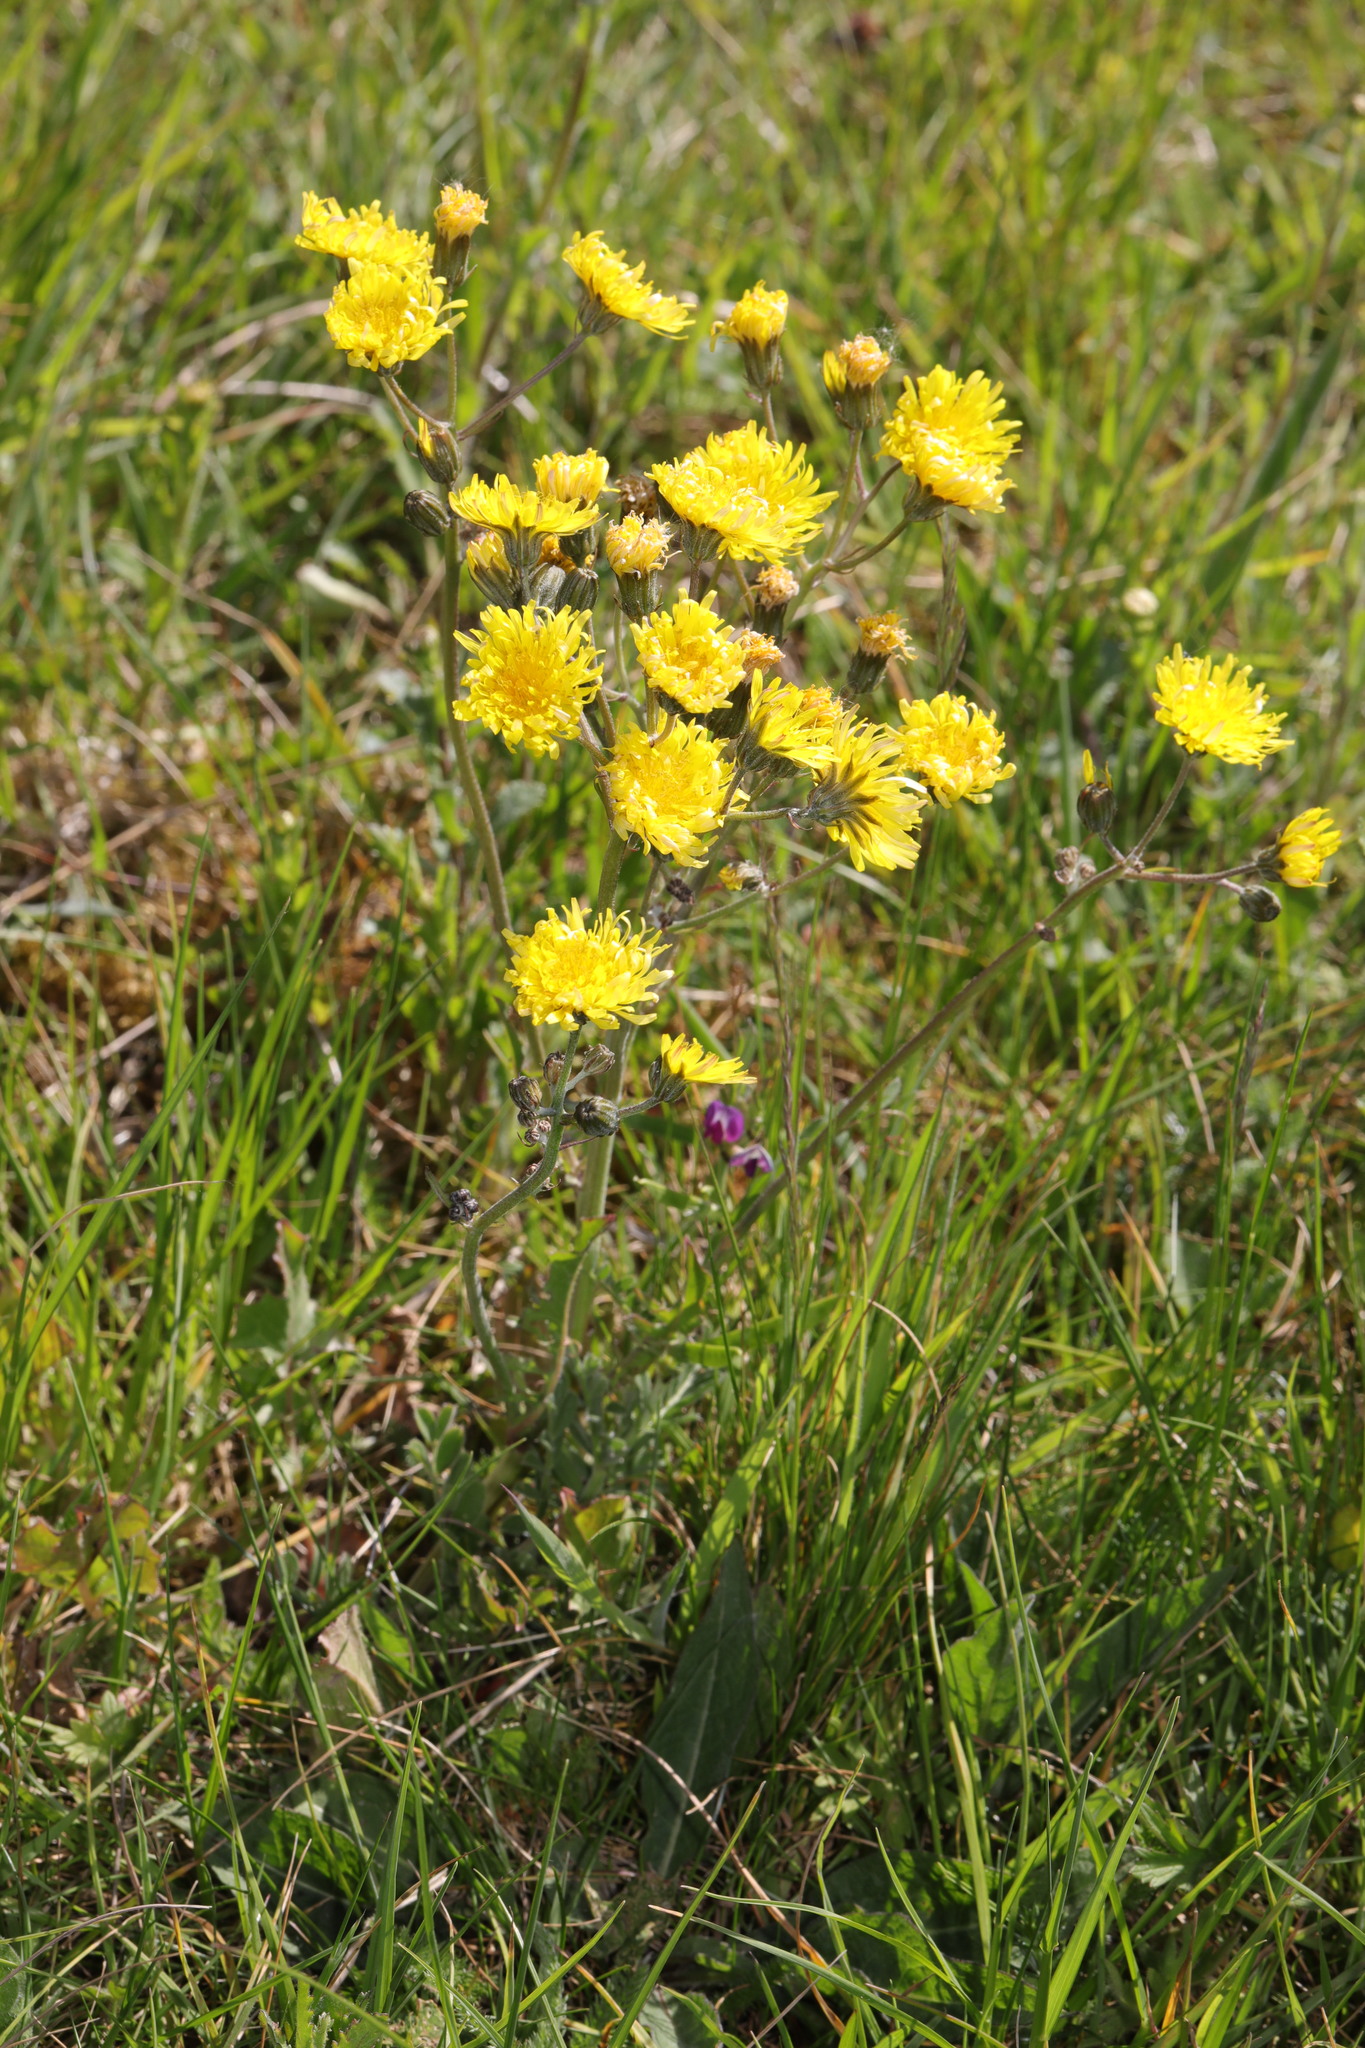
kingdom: Plantae
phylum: Tracheophyta
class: Magnoliopsida
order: Asterales
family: Asteraceae
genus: Crepis
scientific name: Crepis vesicaria
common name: Beaked hawksbeard
